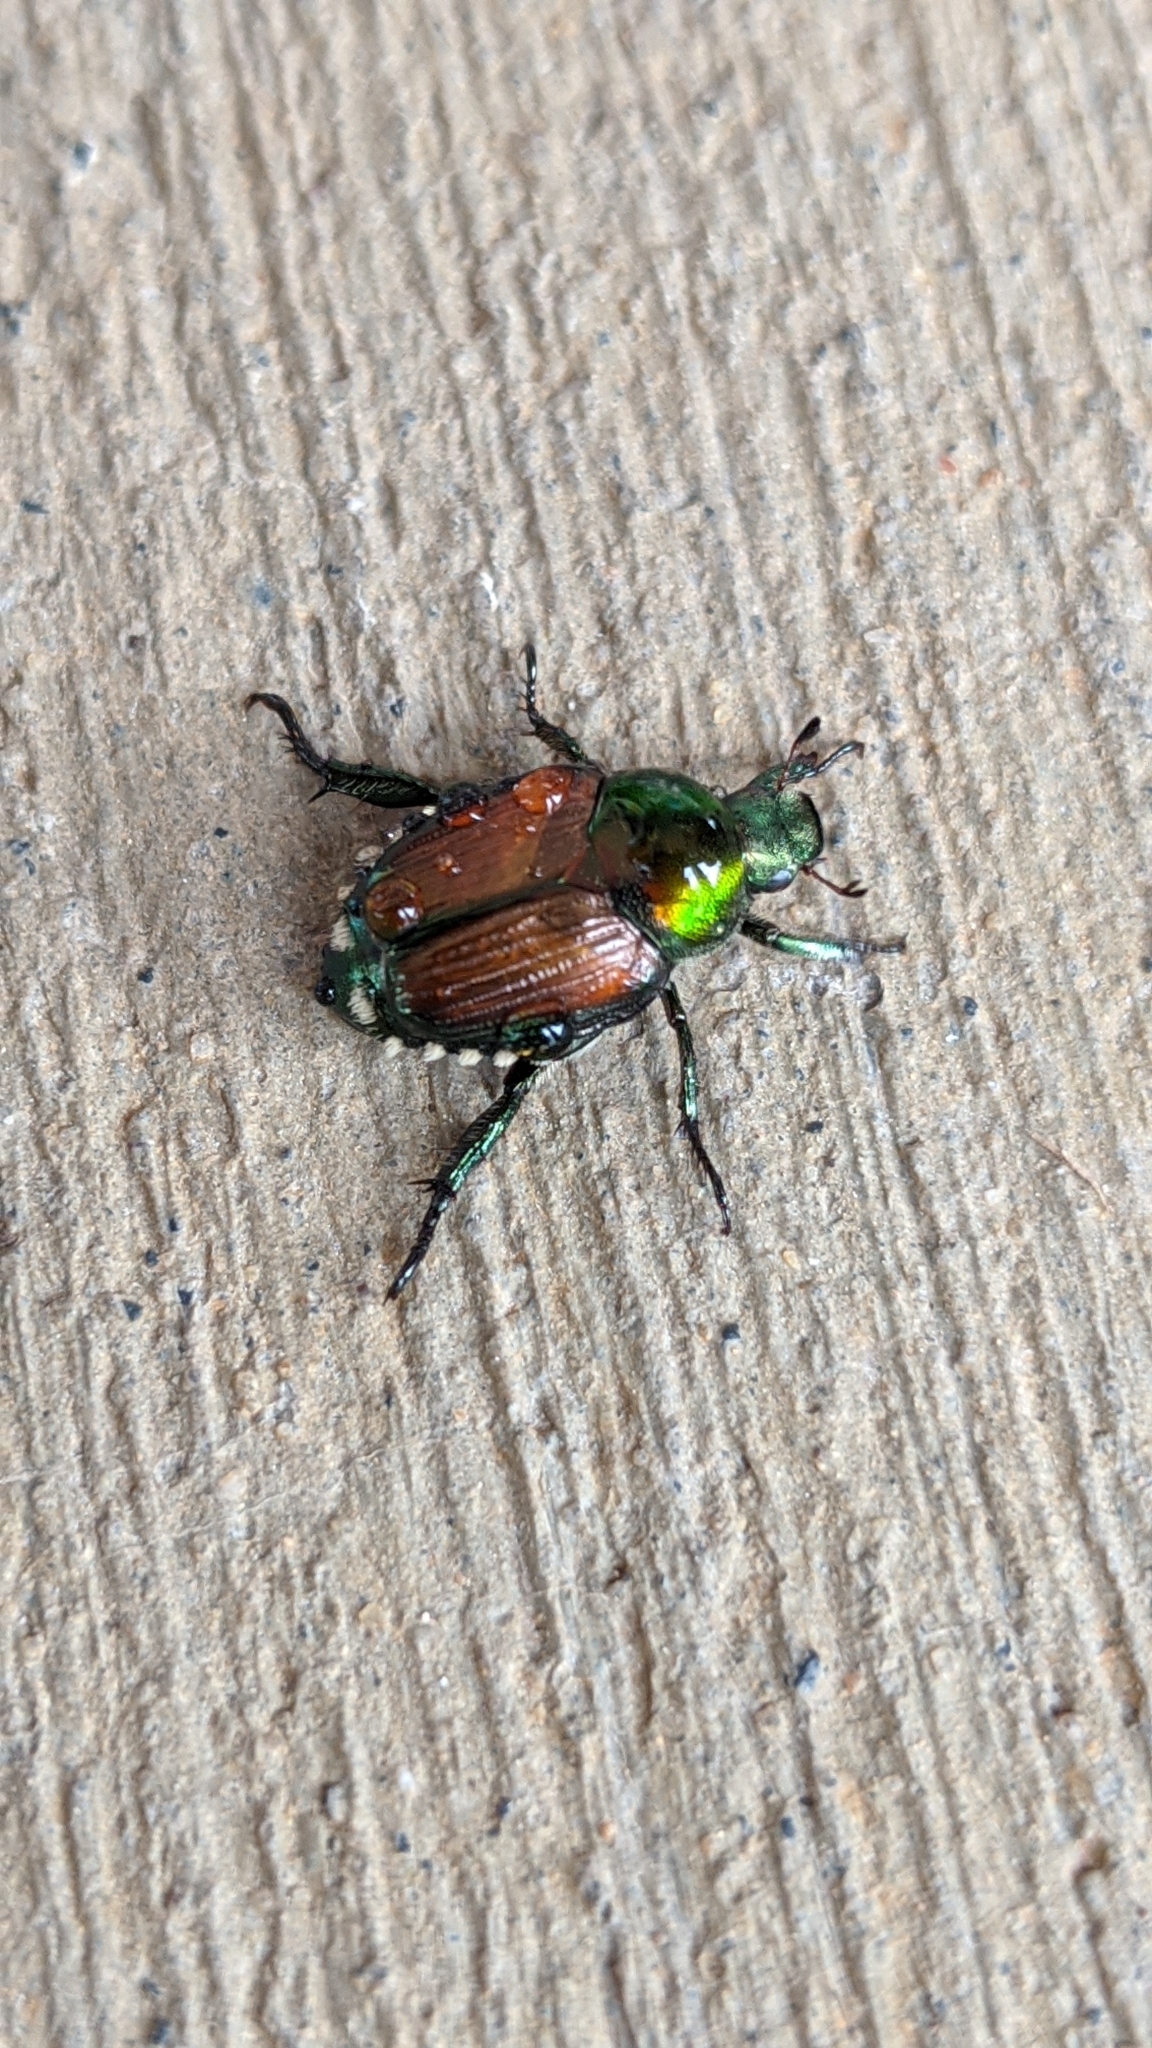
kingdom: Animalia
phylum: Arthropoda
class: Insecta
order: Coleoptera
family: Scarabaeidae
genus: Popillia
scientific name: Popillia japonica
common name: Japanese beetle
